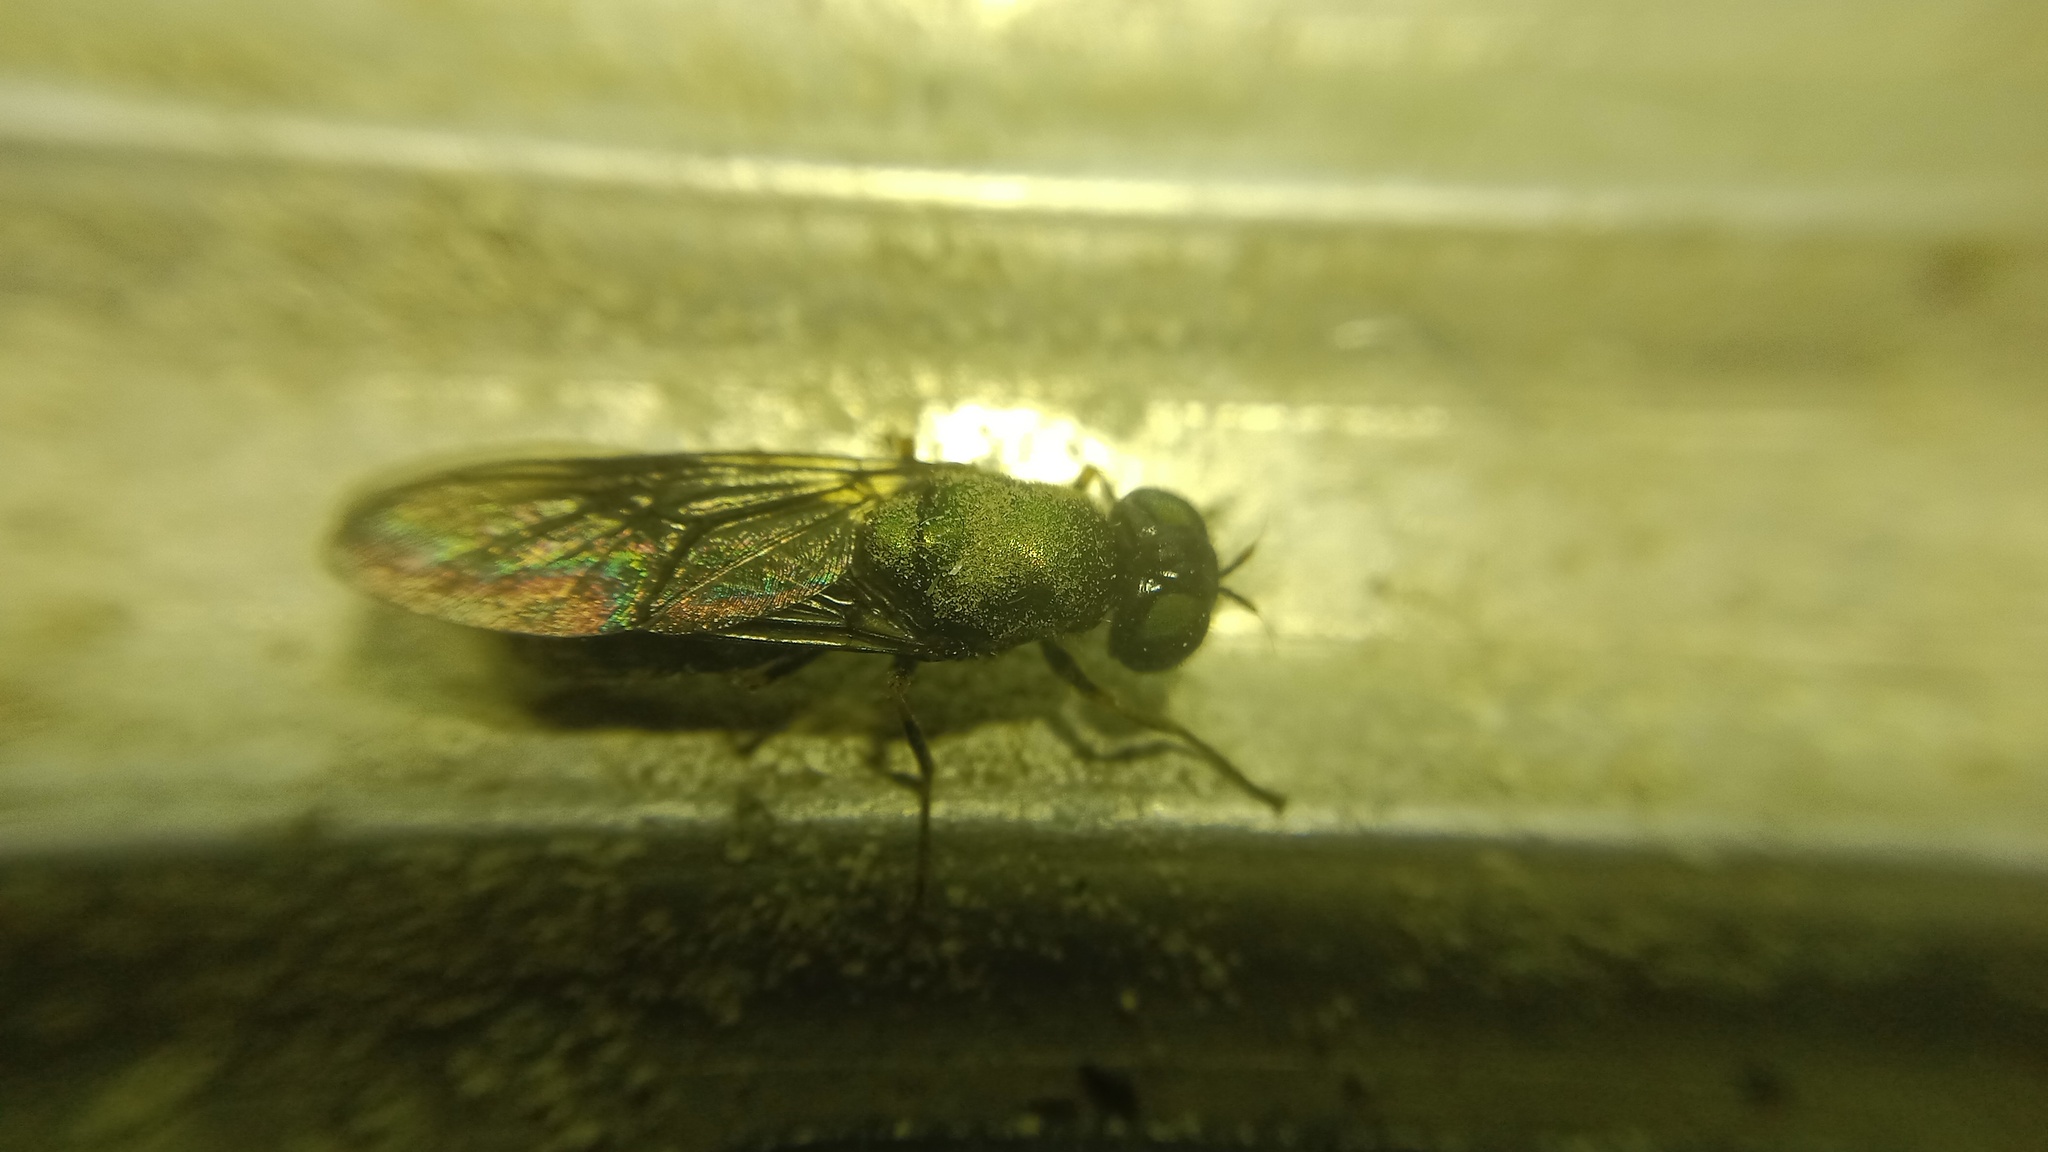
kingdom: Animalia
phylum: Arthropoda
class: Insecta
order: Diptera
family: Stratiomyidae
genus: Chloromyia
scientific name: Chloromyia formosa
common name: Soldier fly
